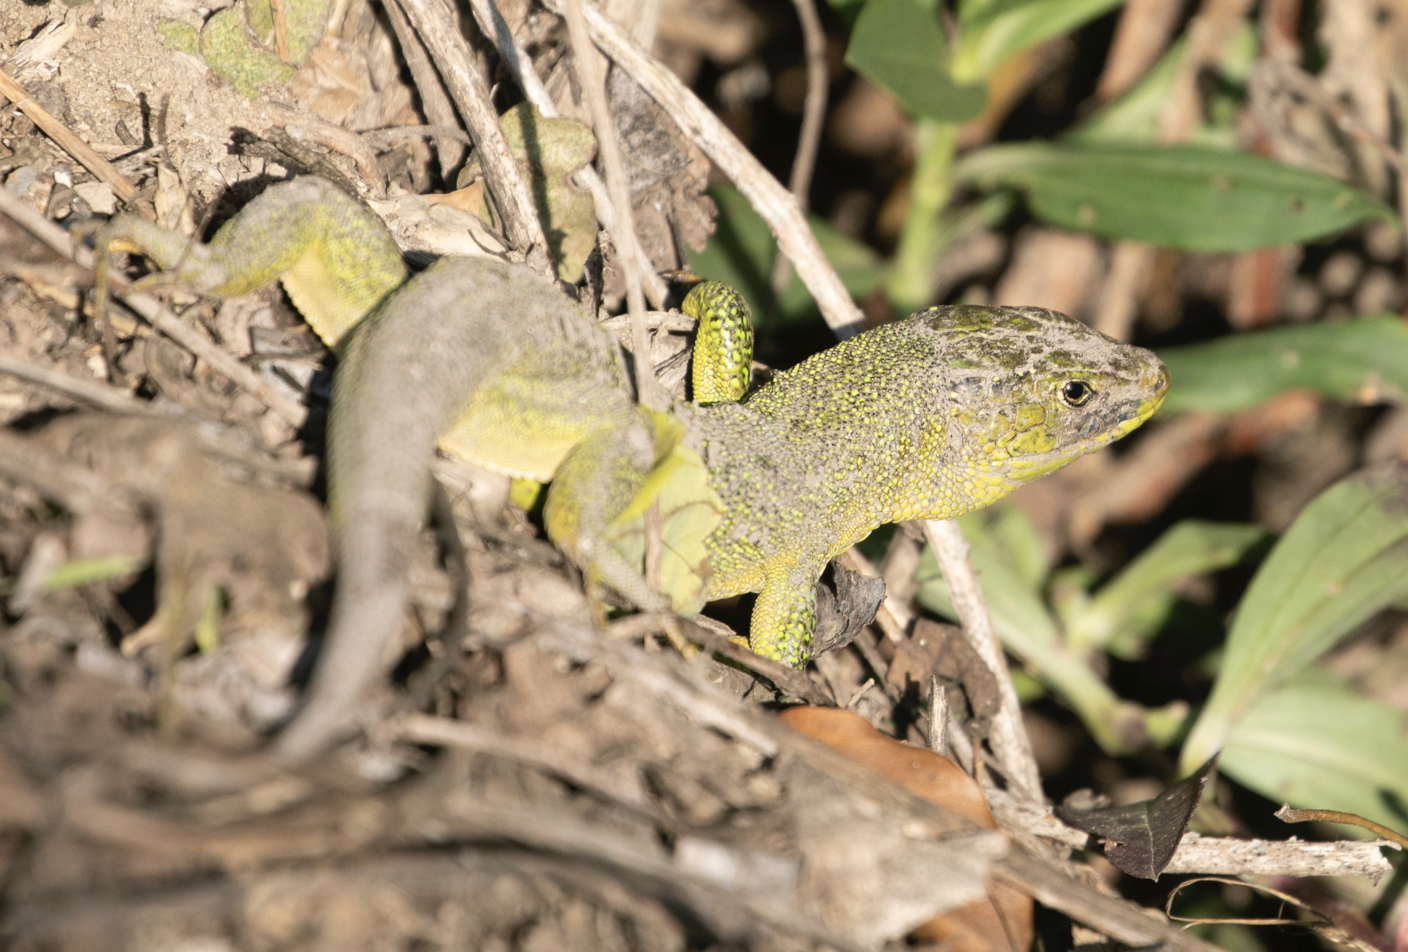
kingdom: Animalia
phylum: Chordata
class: Squamata
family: Lacertidae
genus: Lacerta
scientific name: Lacerta bilineata
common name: Western green lizard
